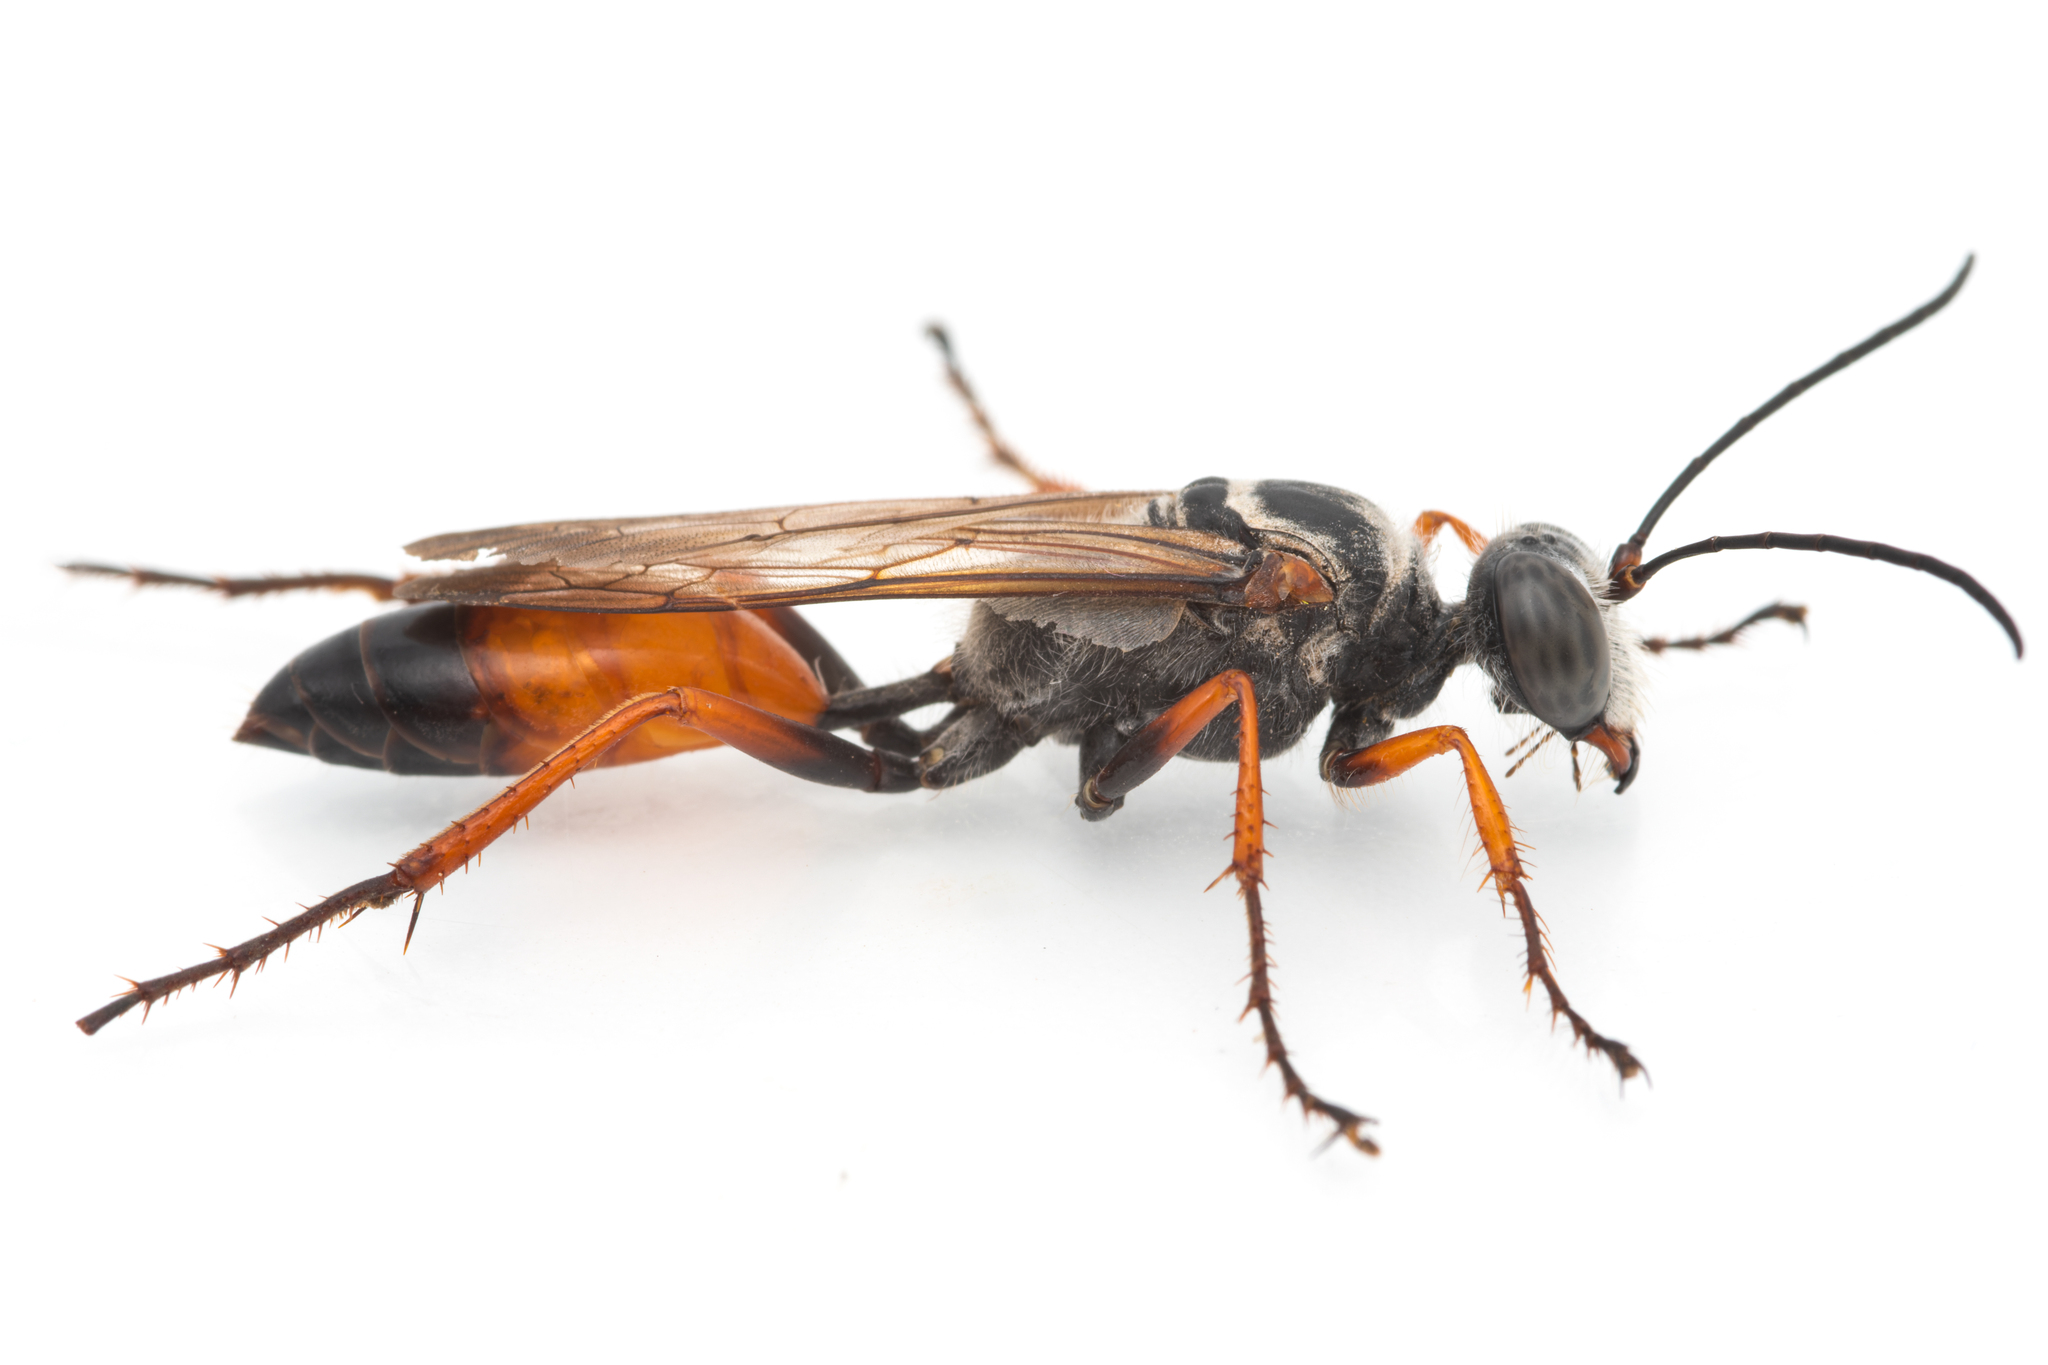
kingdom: Animalia
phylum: Arthropoda
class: Insecta
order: Hymenoptera
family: Sphecidae
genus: Sphex
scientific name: Sphex pruinosus
